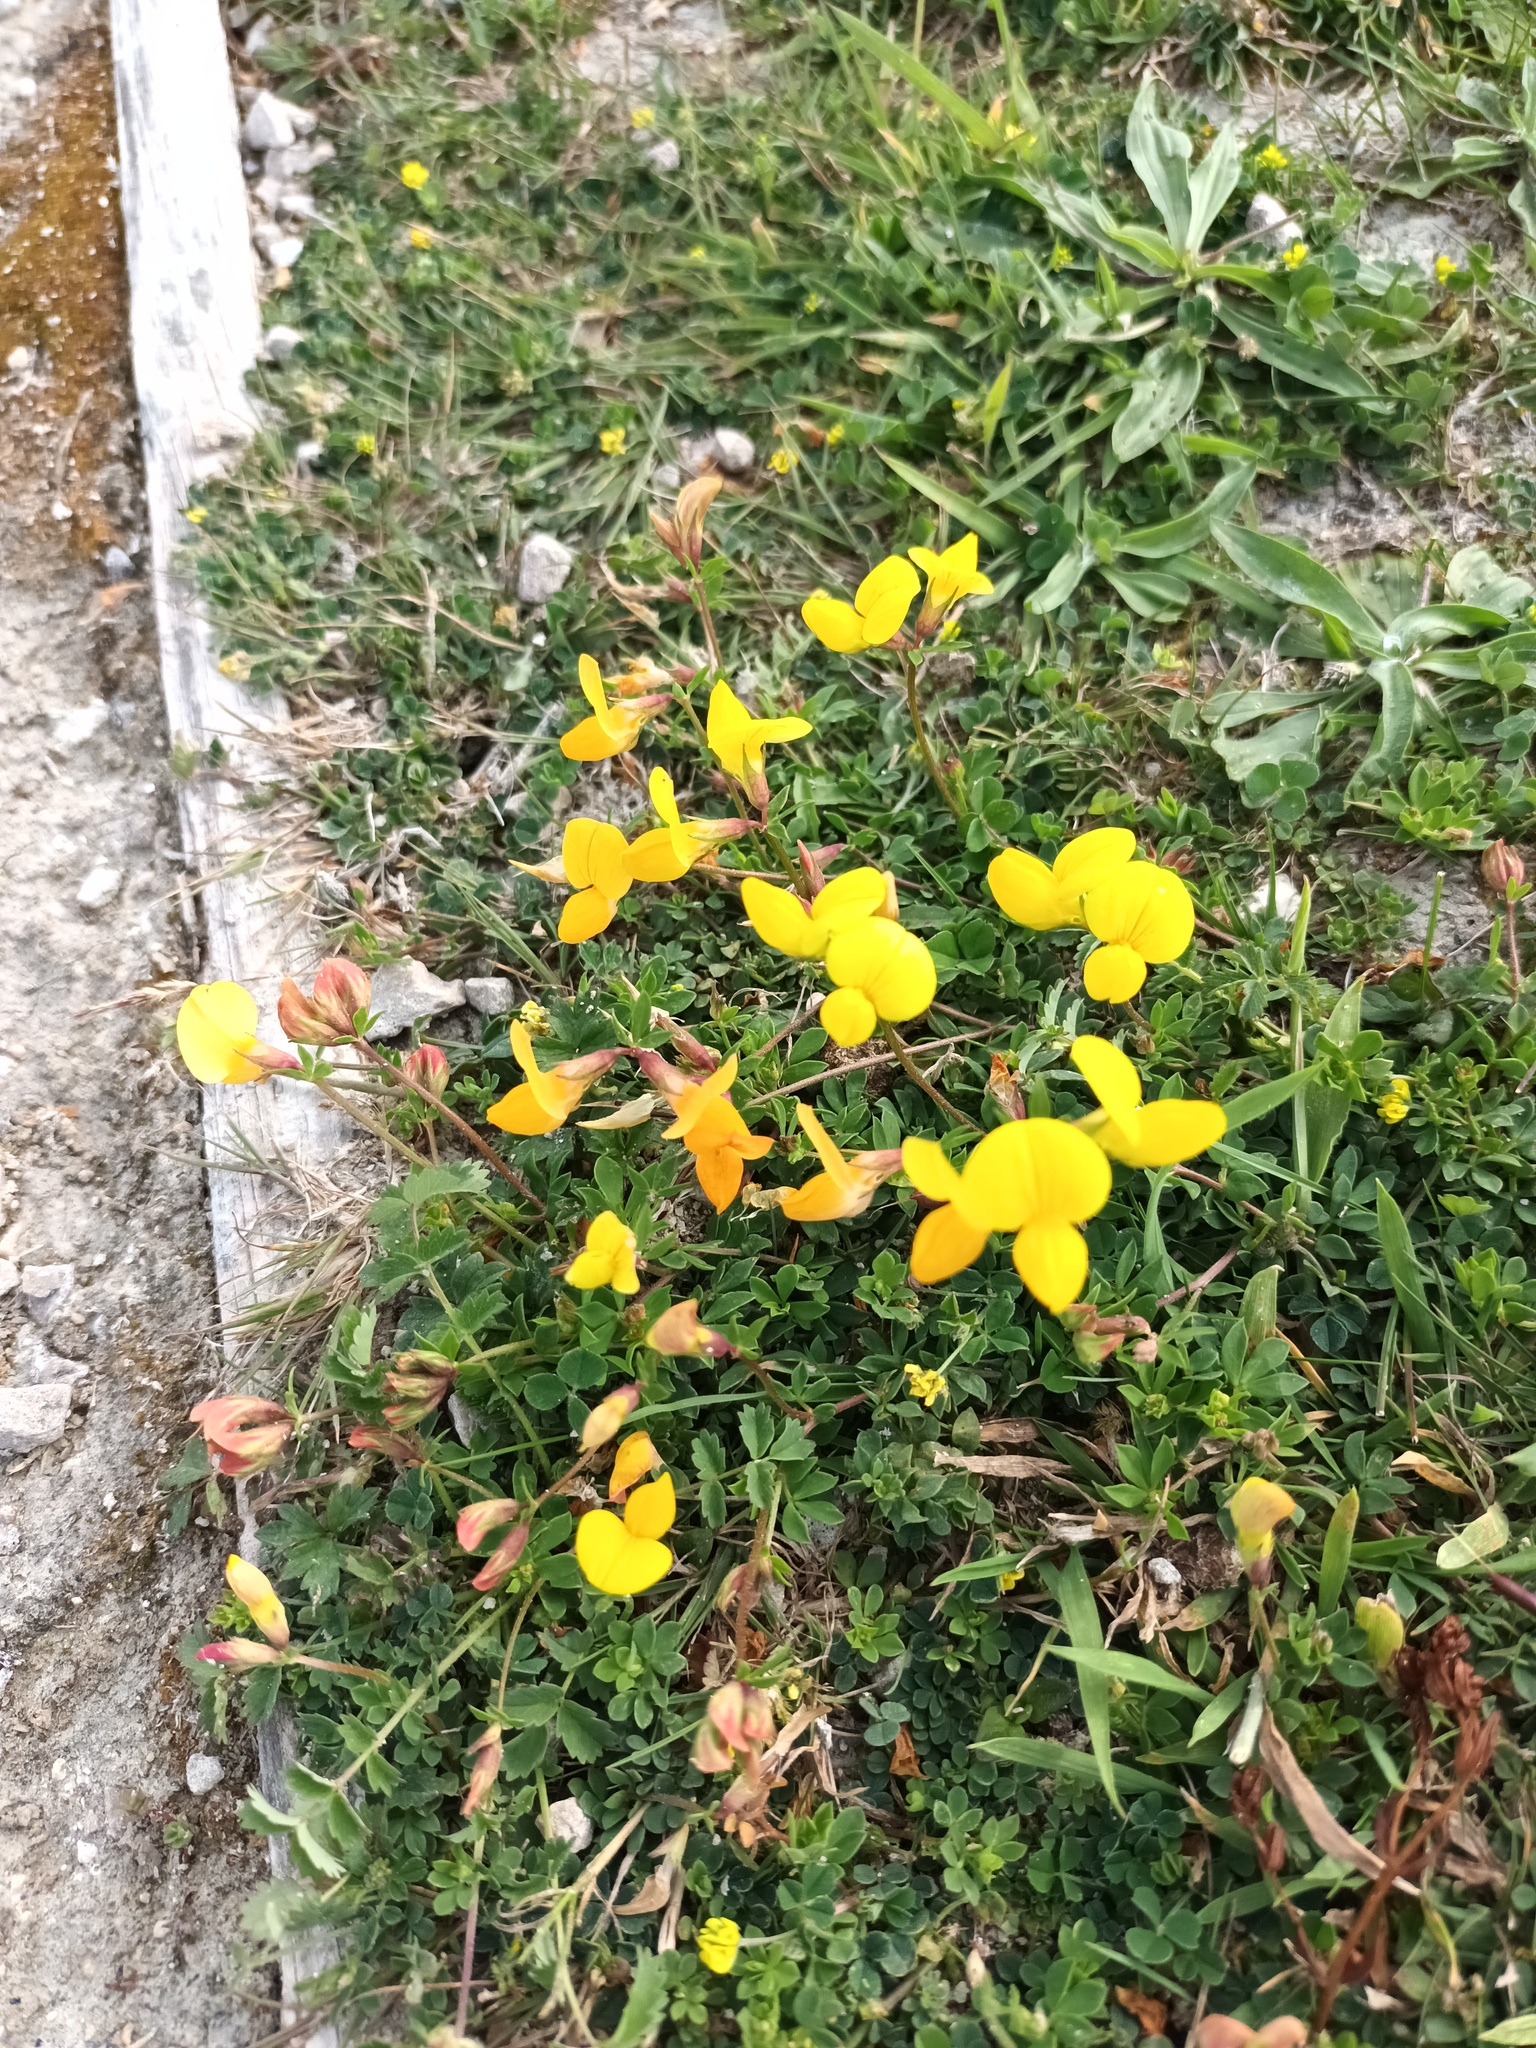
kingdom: Plantae
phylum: Tracheophyta
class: Magnoliopsida
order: Fabales
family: Fabaceae
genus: Lotus
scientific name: Lotus corniculatus
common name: Common bird's-foot-trefoil
